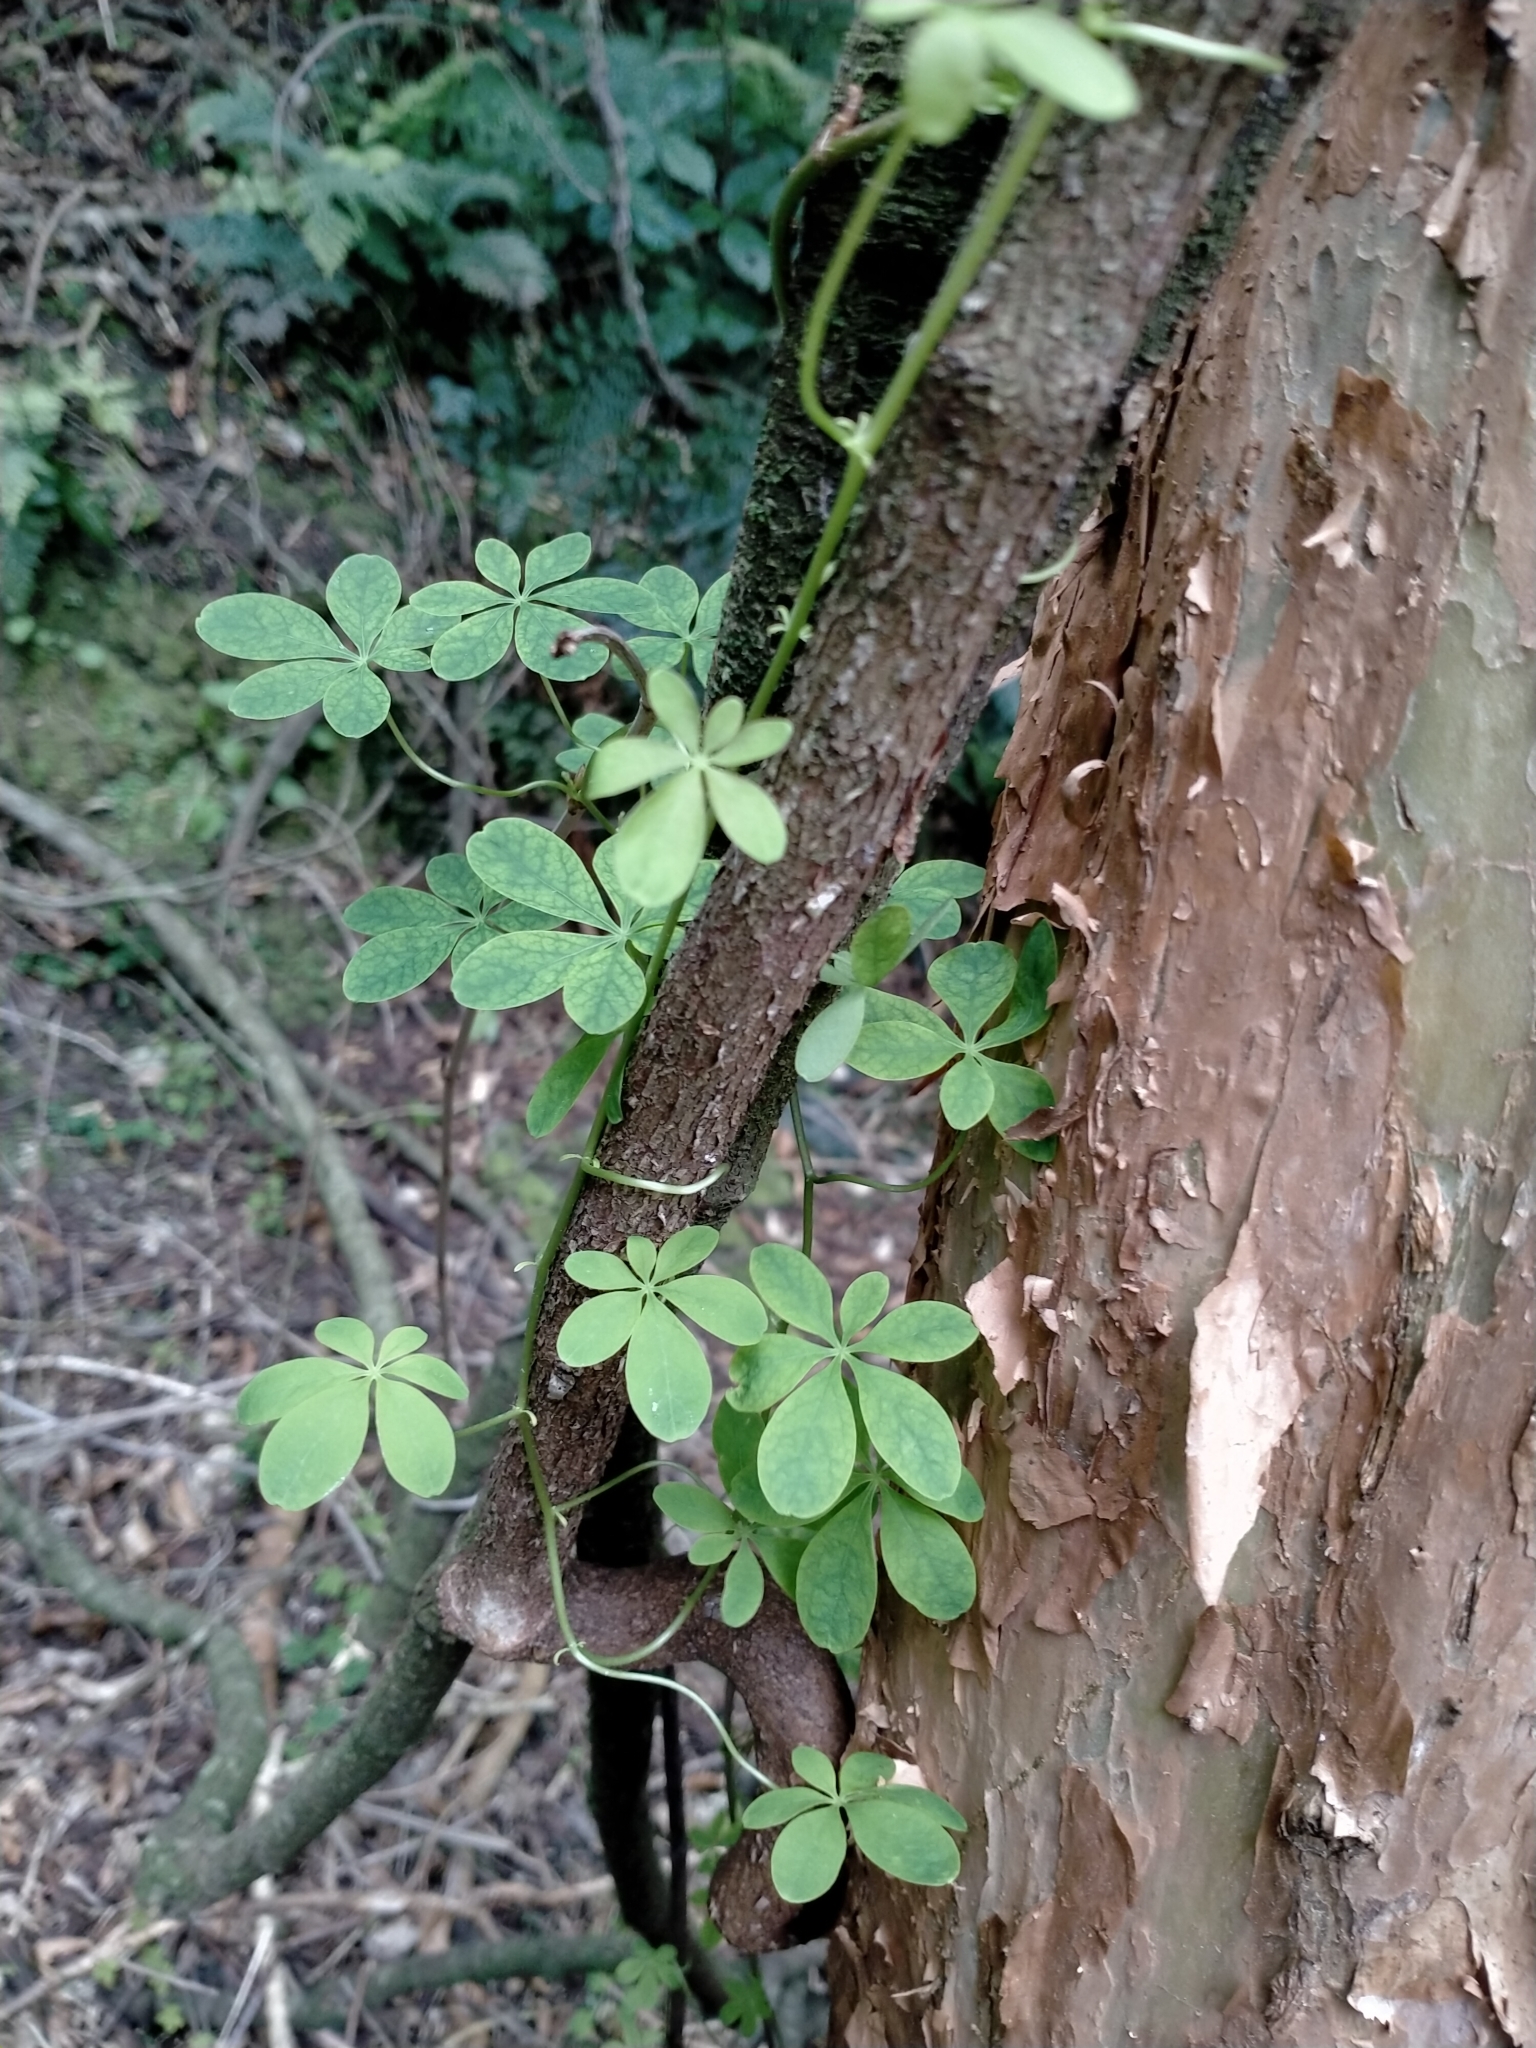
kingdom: Plantae
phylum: Tracheophyta
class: Magnoliopsida
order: Brassicales
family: Tropaeolaceae
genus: Tropaeolum
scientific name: Tropaeolum speciosum
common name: Flame nasturtium
